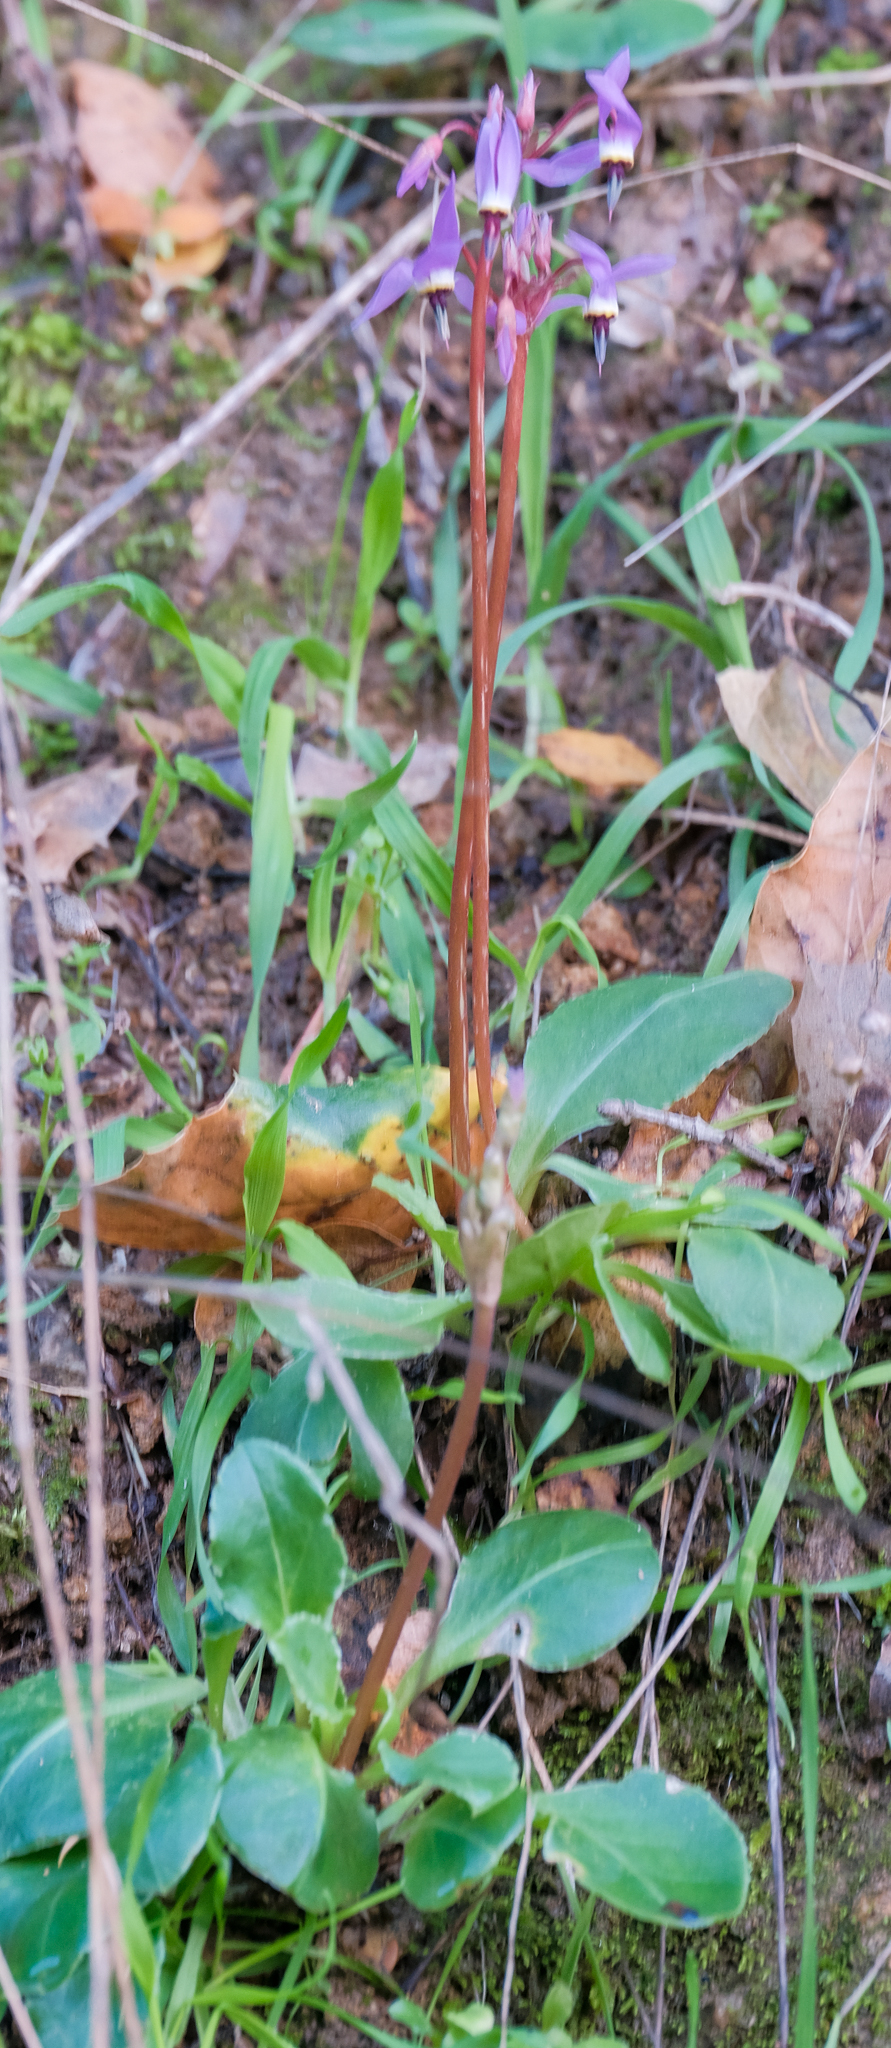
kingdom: Plantae
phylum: Tracheophyta
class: Magnoliopsida
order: Ericales
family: Primulaceae
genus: Dodecatheon
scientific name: Dodecatheon hendersonii
